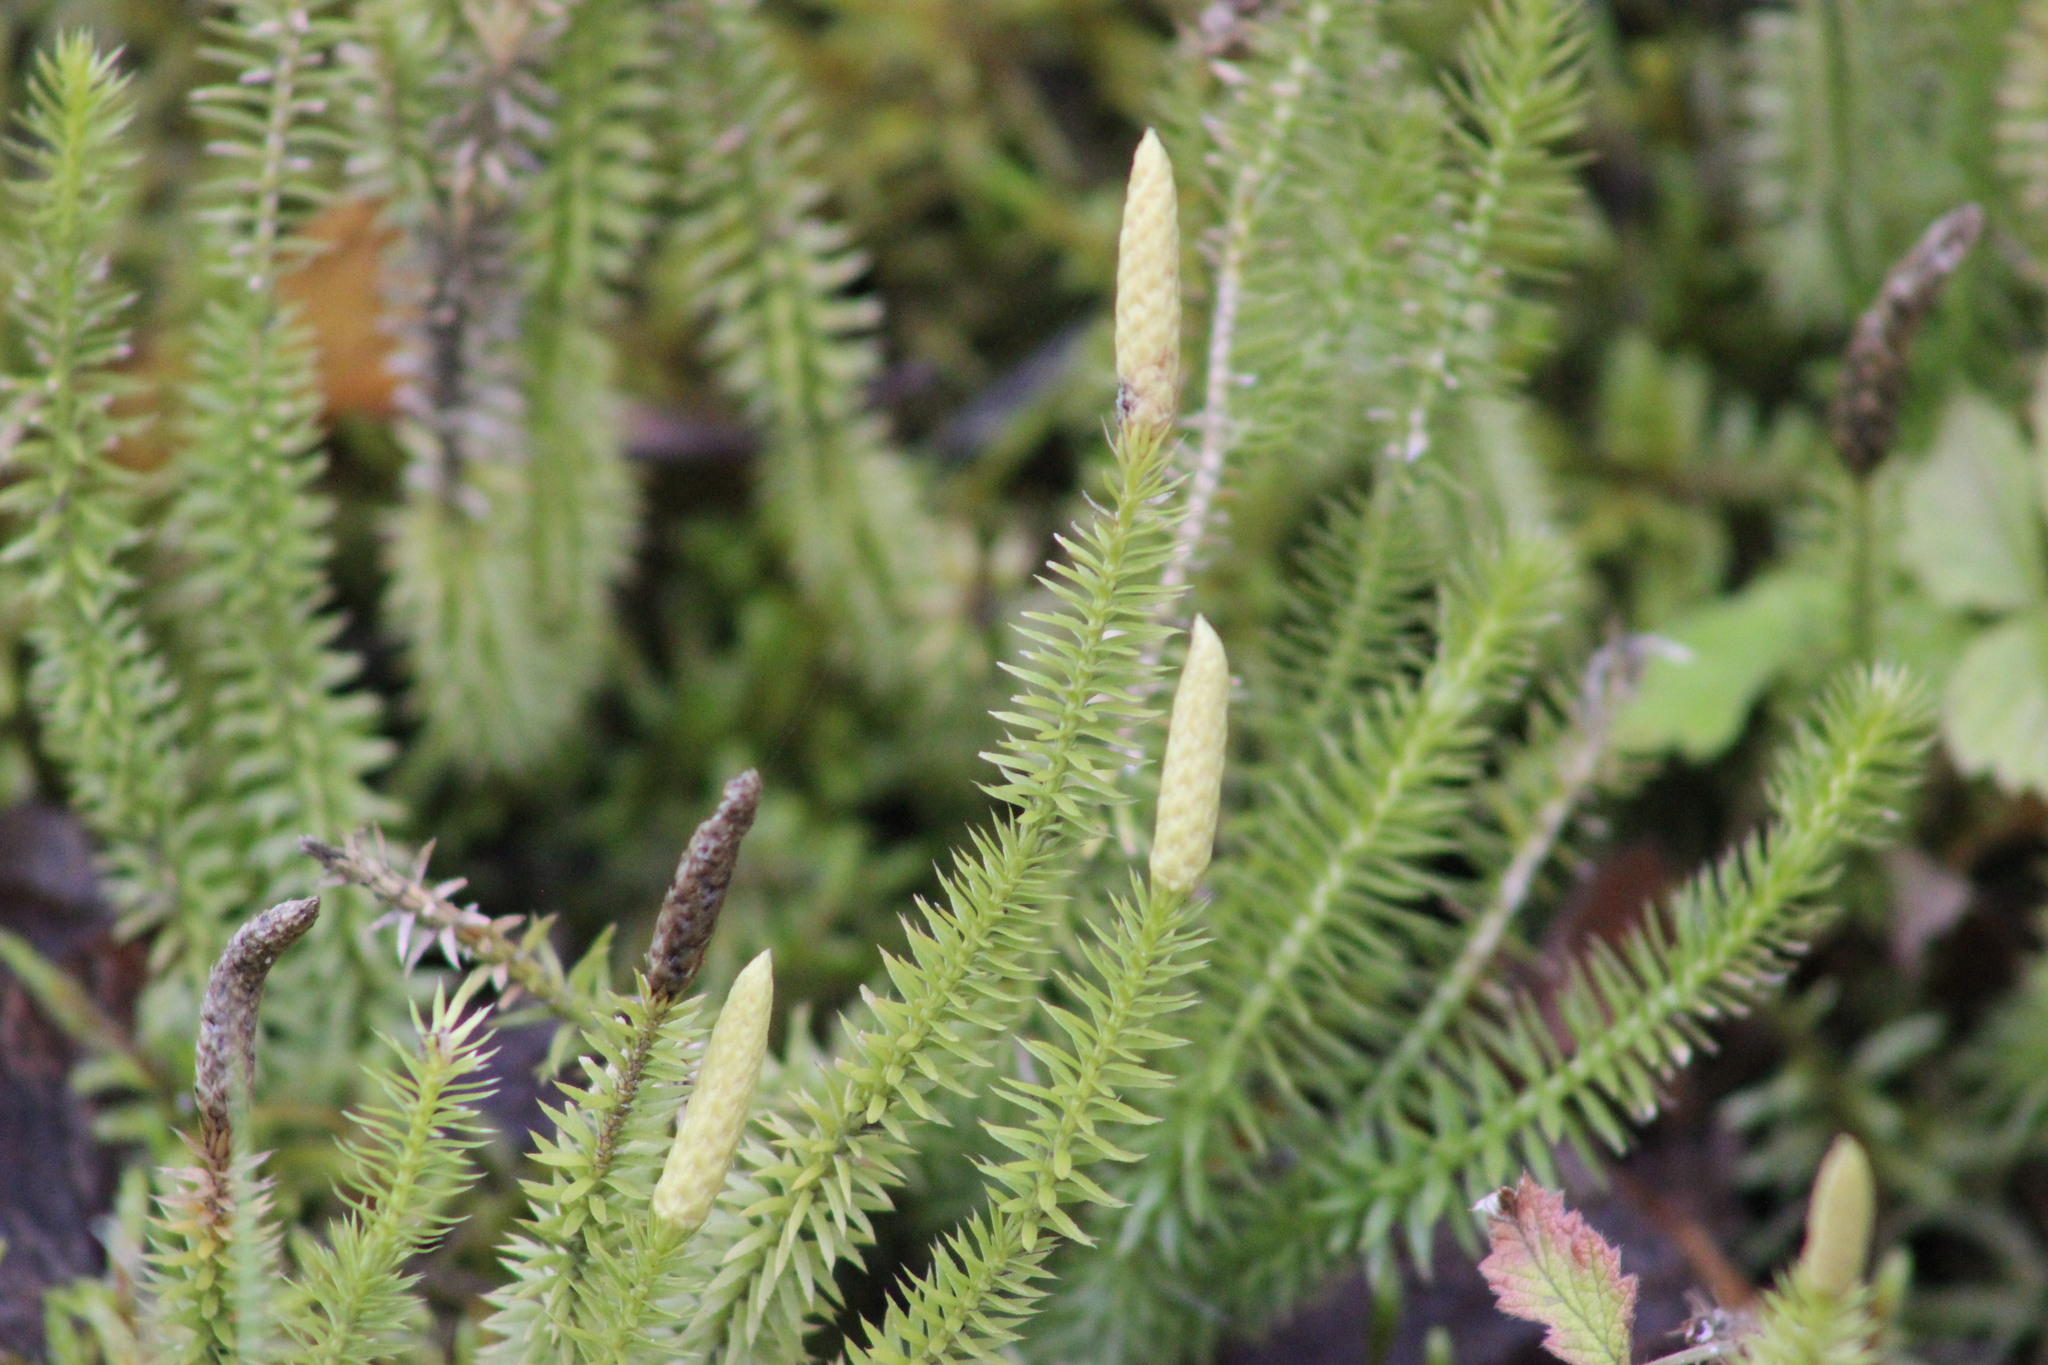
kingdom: Plantae
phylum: Tracheophyta
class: Lycopodiopsida
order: Lycopodiales
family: Lycopodiaceae
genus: Spinulum
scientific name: Spinulum annotinum
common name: Interrupted club-moss
